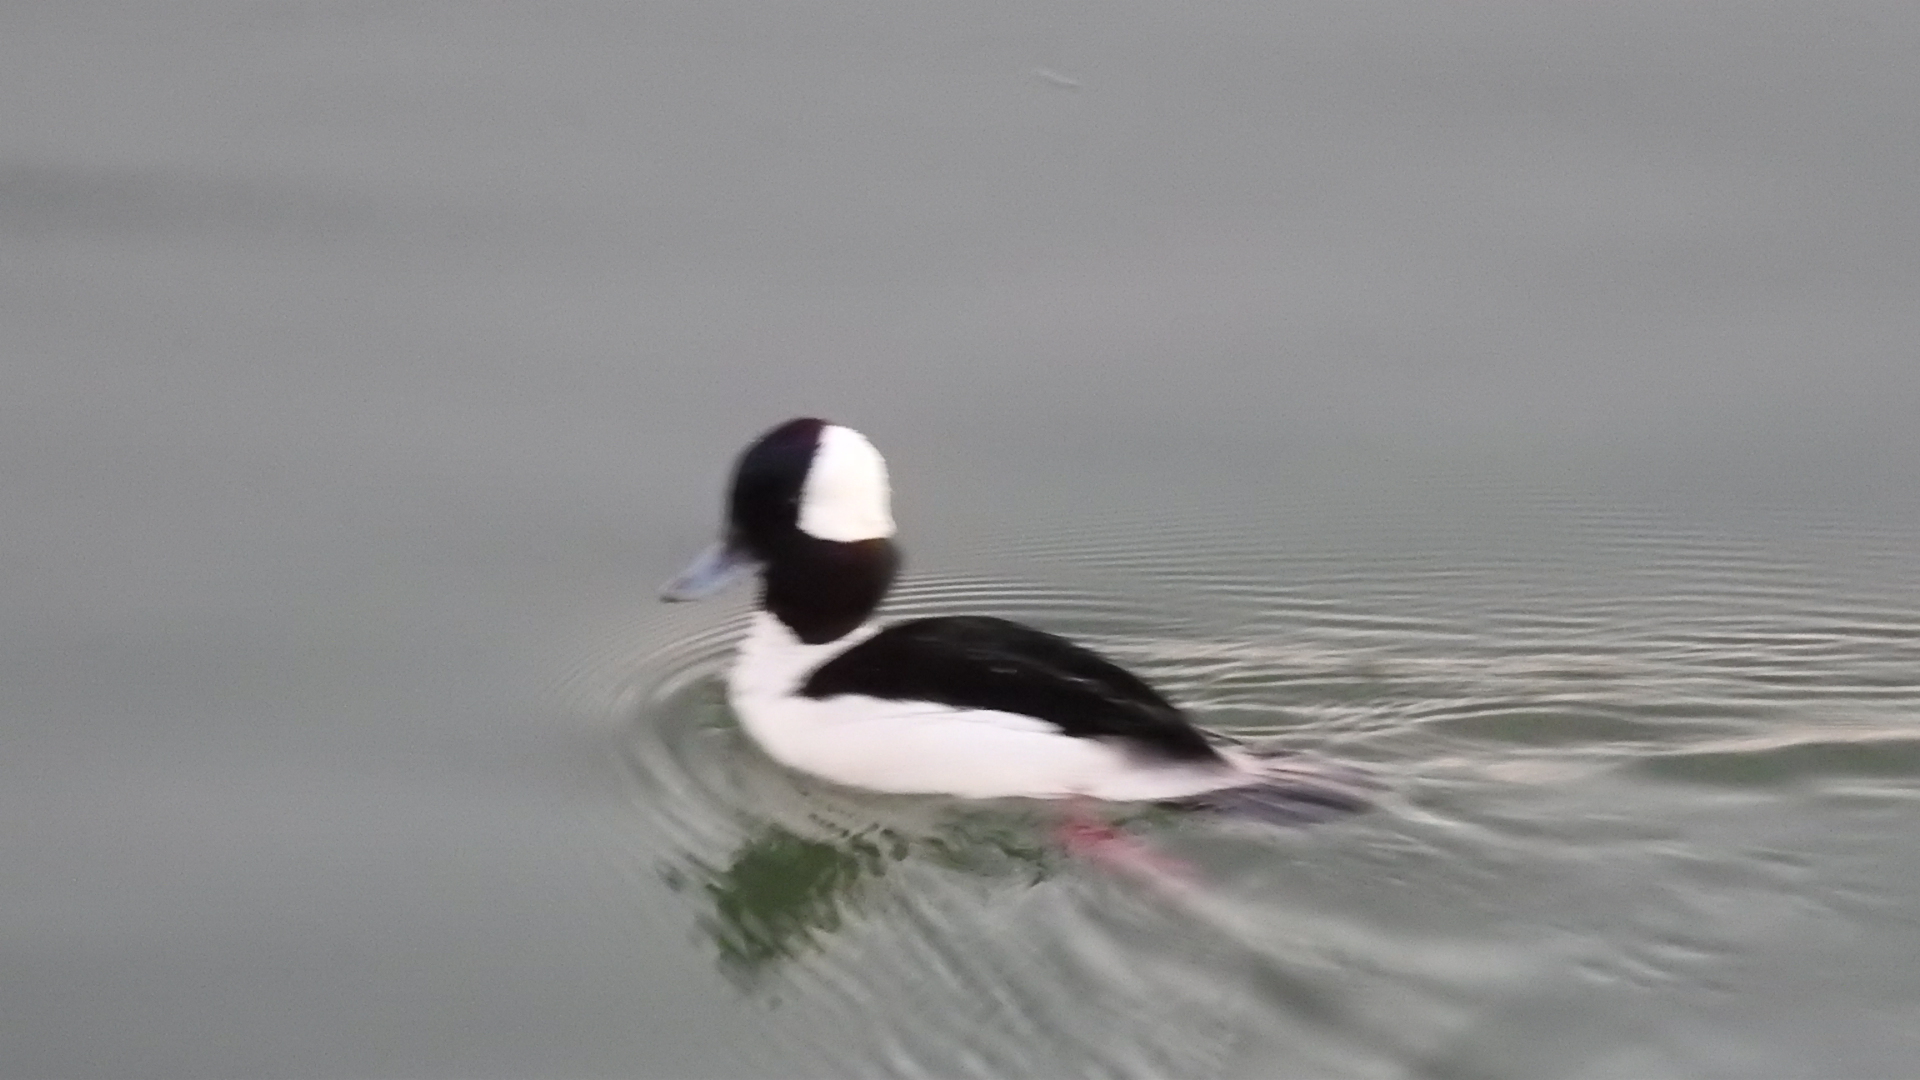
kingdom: Animalia
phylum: Chordata
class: Aves
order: Anseriformes
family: Anatidae
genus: Bucephala
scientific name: Bucephala albeola
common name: Bufflehead
